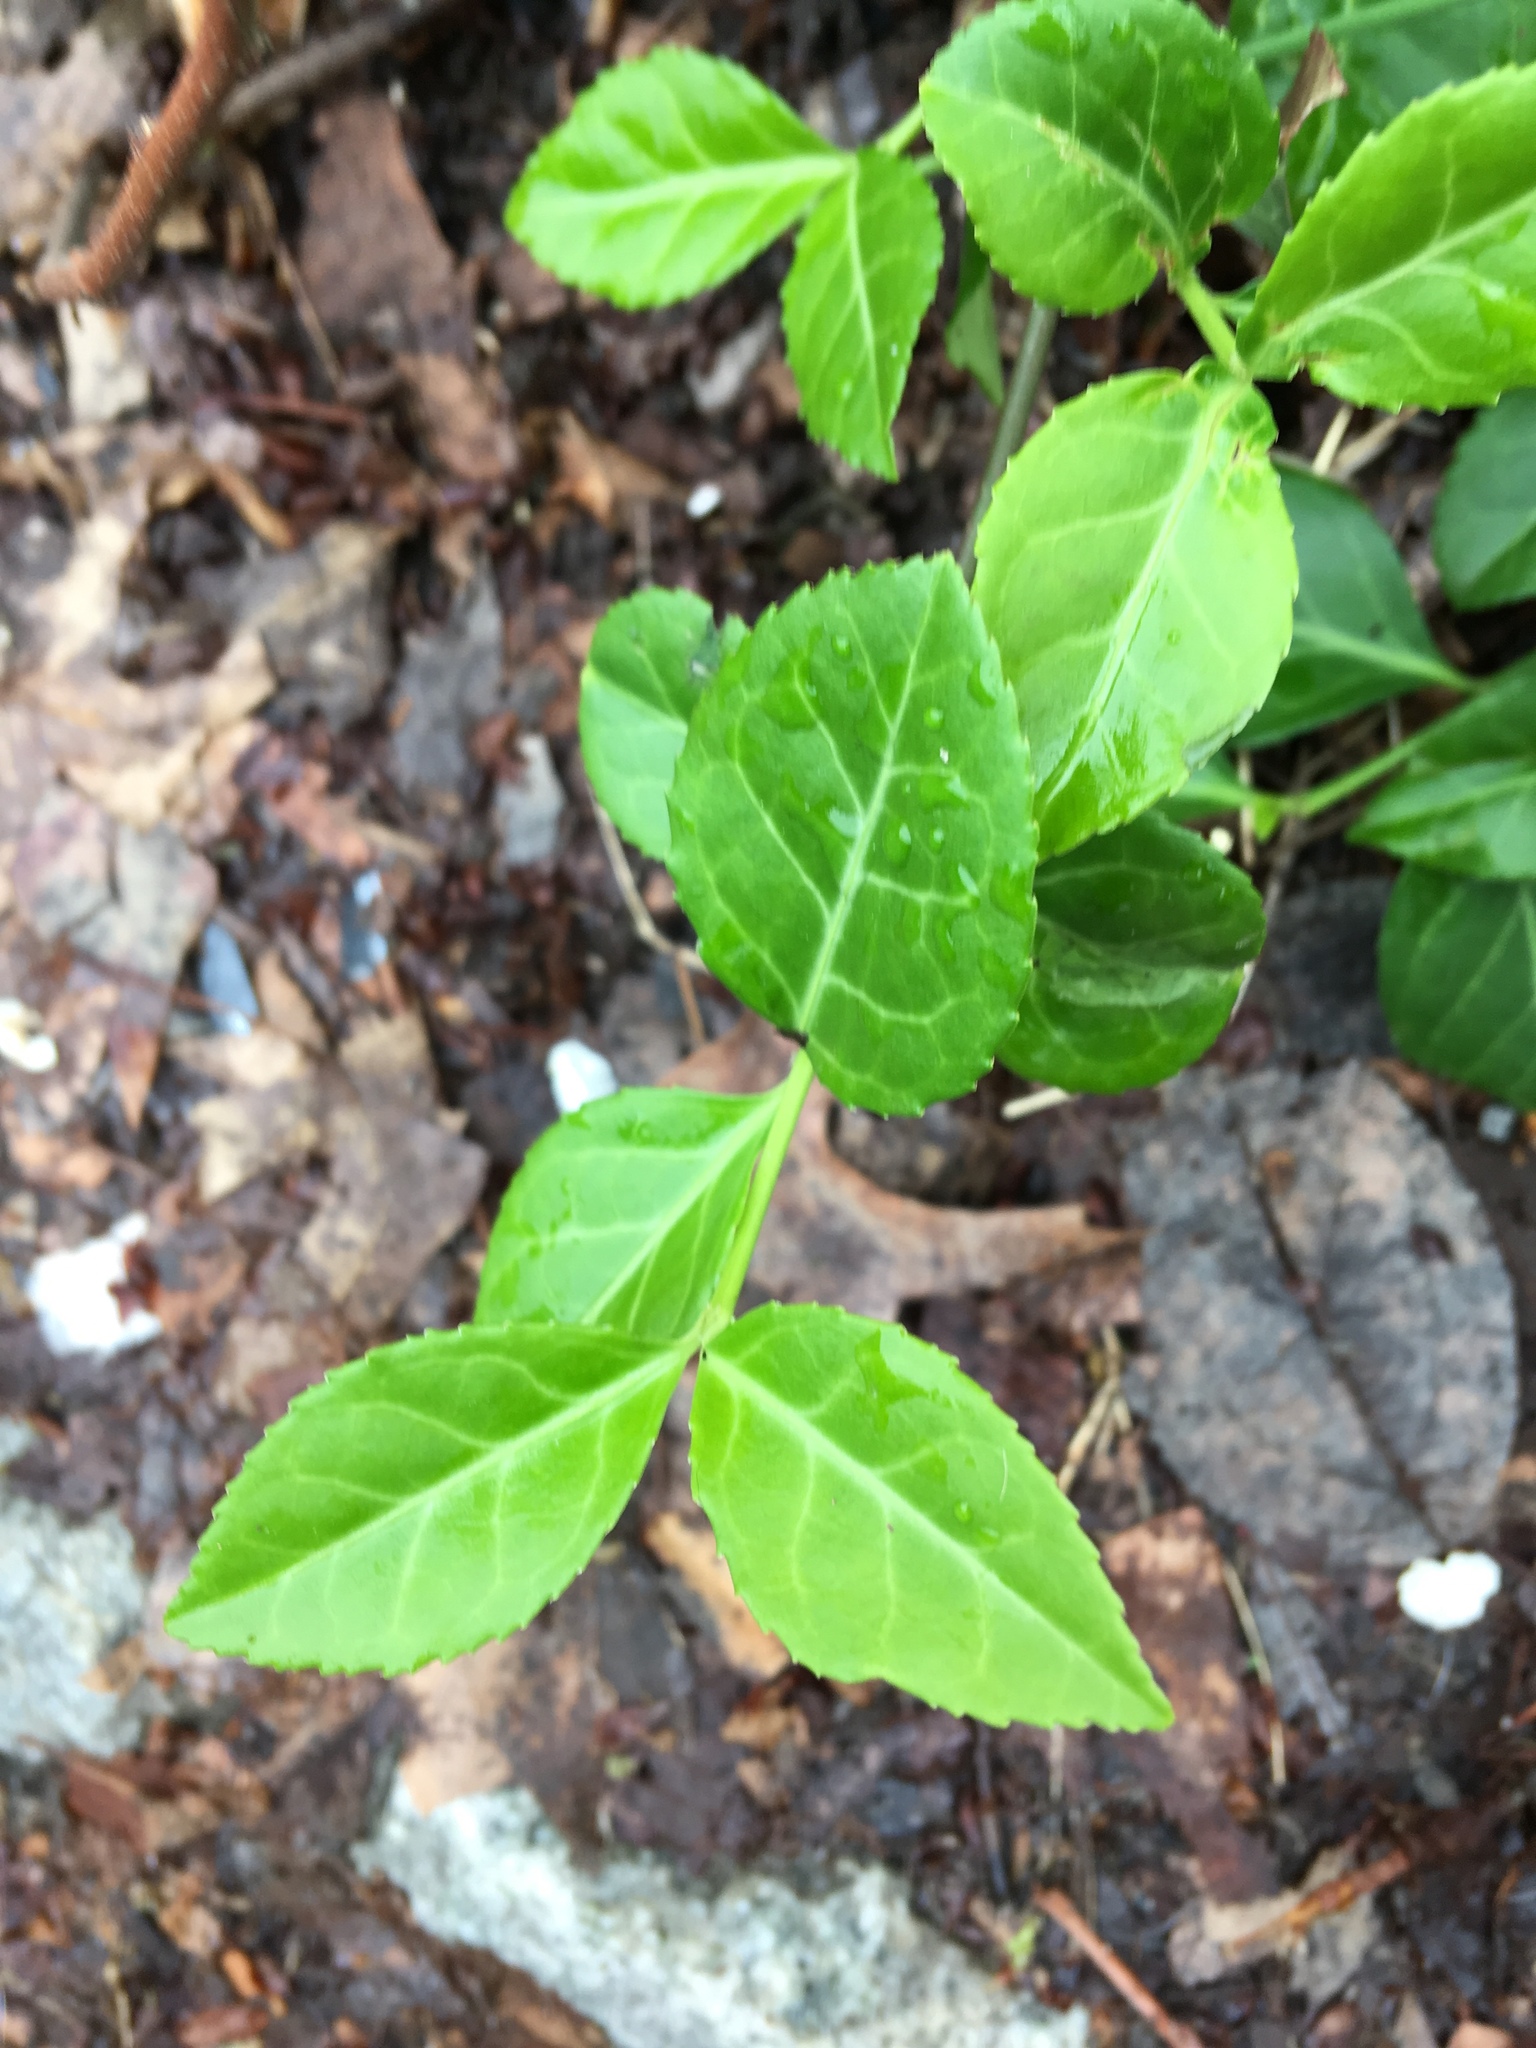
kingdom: Plantae
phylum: Tracheophyta
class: Magnoliopsida
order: Celastrales
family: Celastraceae
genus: Euonymus
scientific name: Euonymus fortunei
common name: Climbing euonymus
